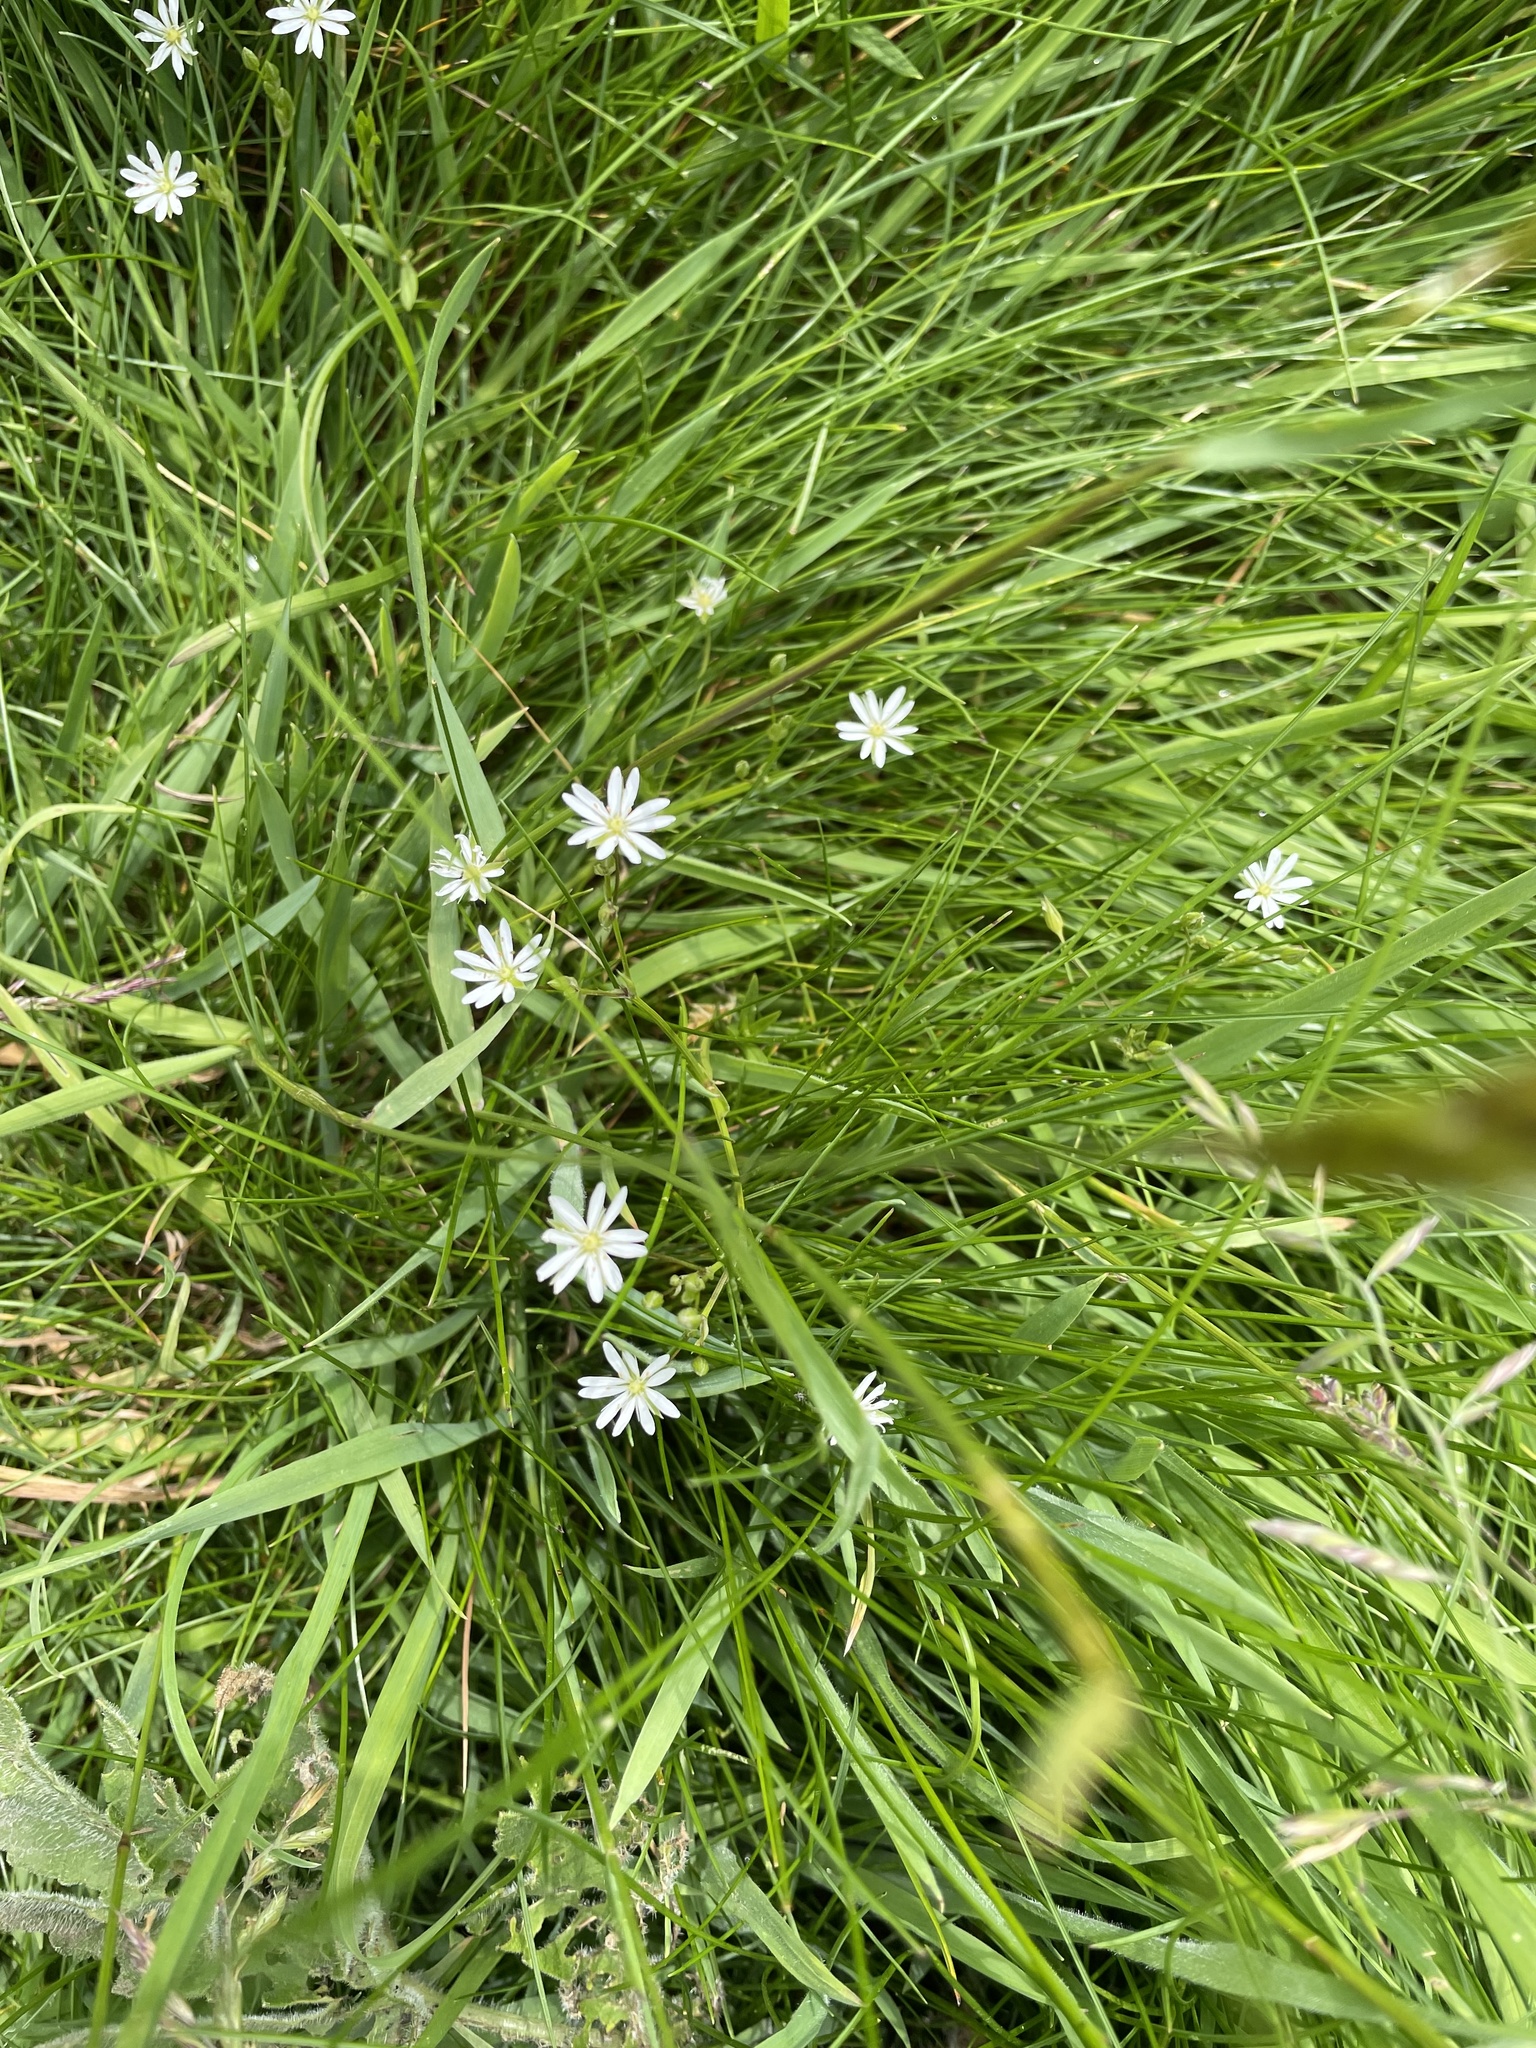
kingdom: Plantae
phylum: Tracheophyta
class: Magnoliopsida
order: Caryophyllales
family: Caryophyllaceae
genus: Stellaria
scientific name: Stellaria graminea
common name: Grass-like starwort
